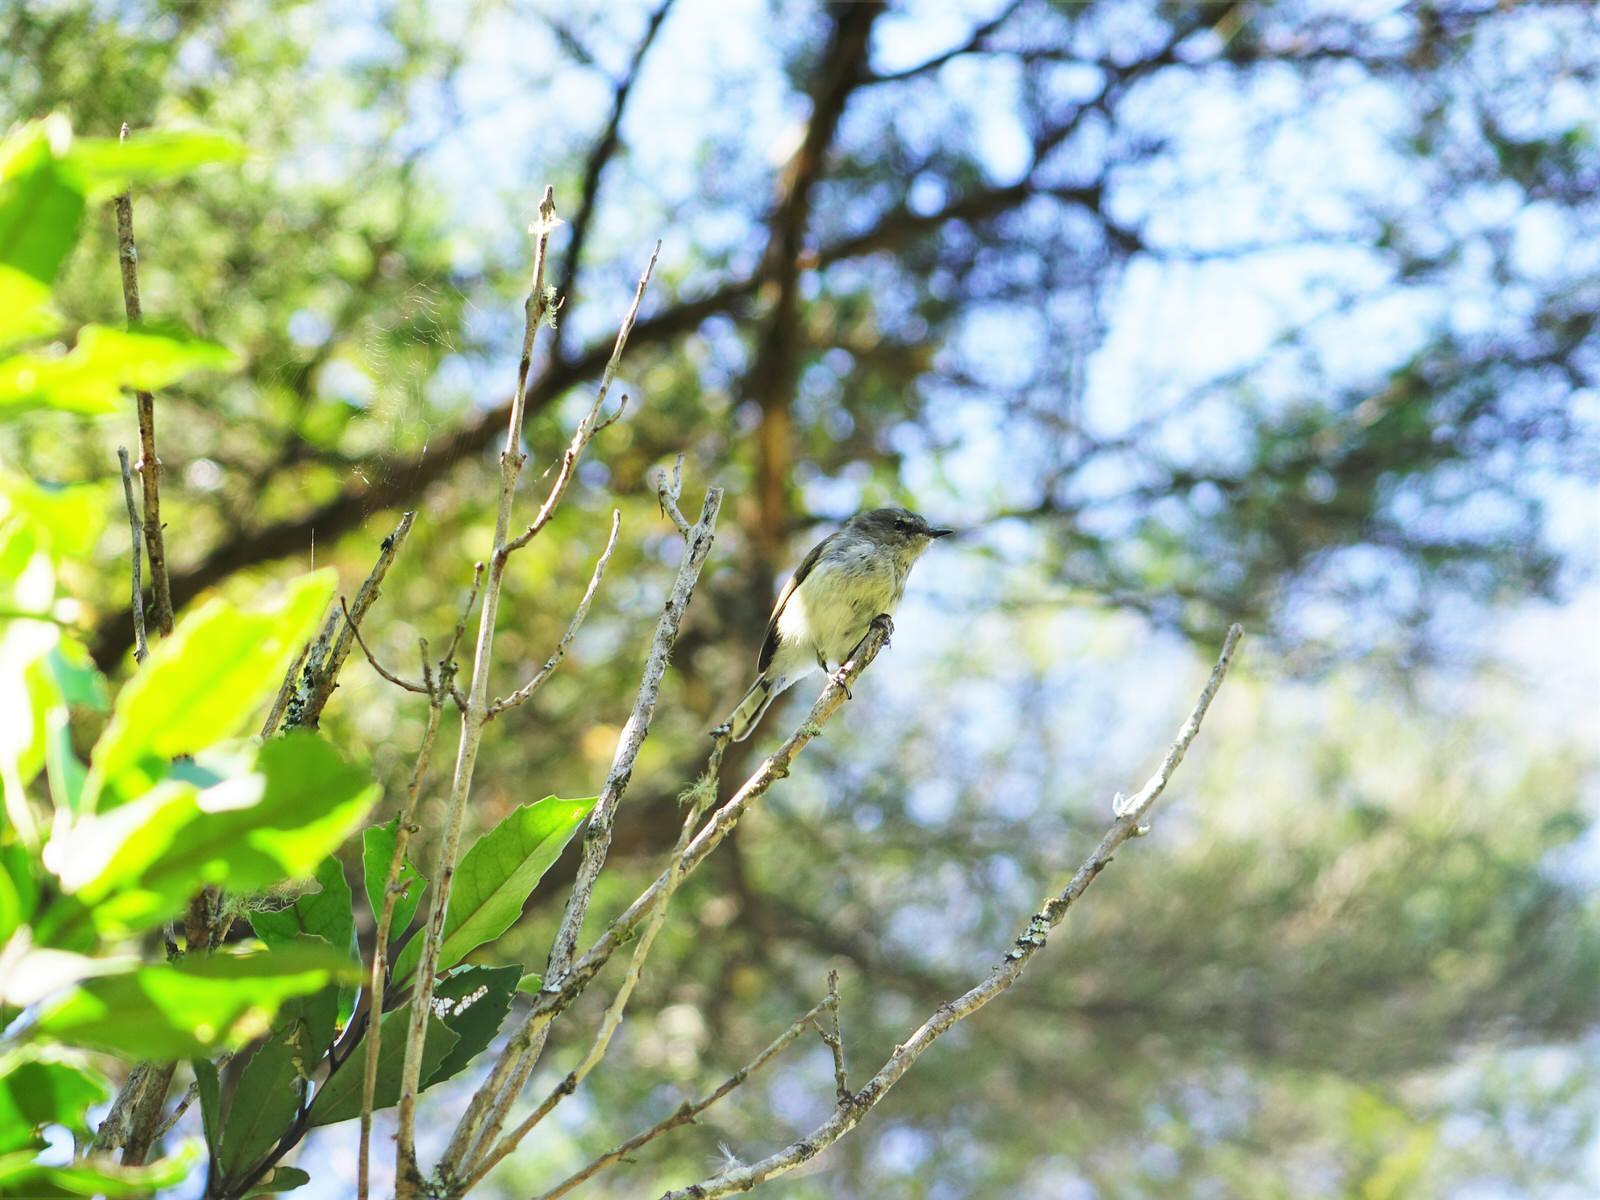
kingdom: Animalia
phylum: Chordata
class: Aves
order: Passeriformes
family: Acanthizidae
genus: Gerygone
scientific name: Gerygone igata
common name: Grey gerygone
